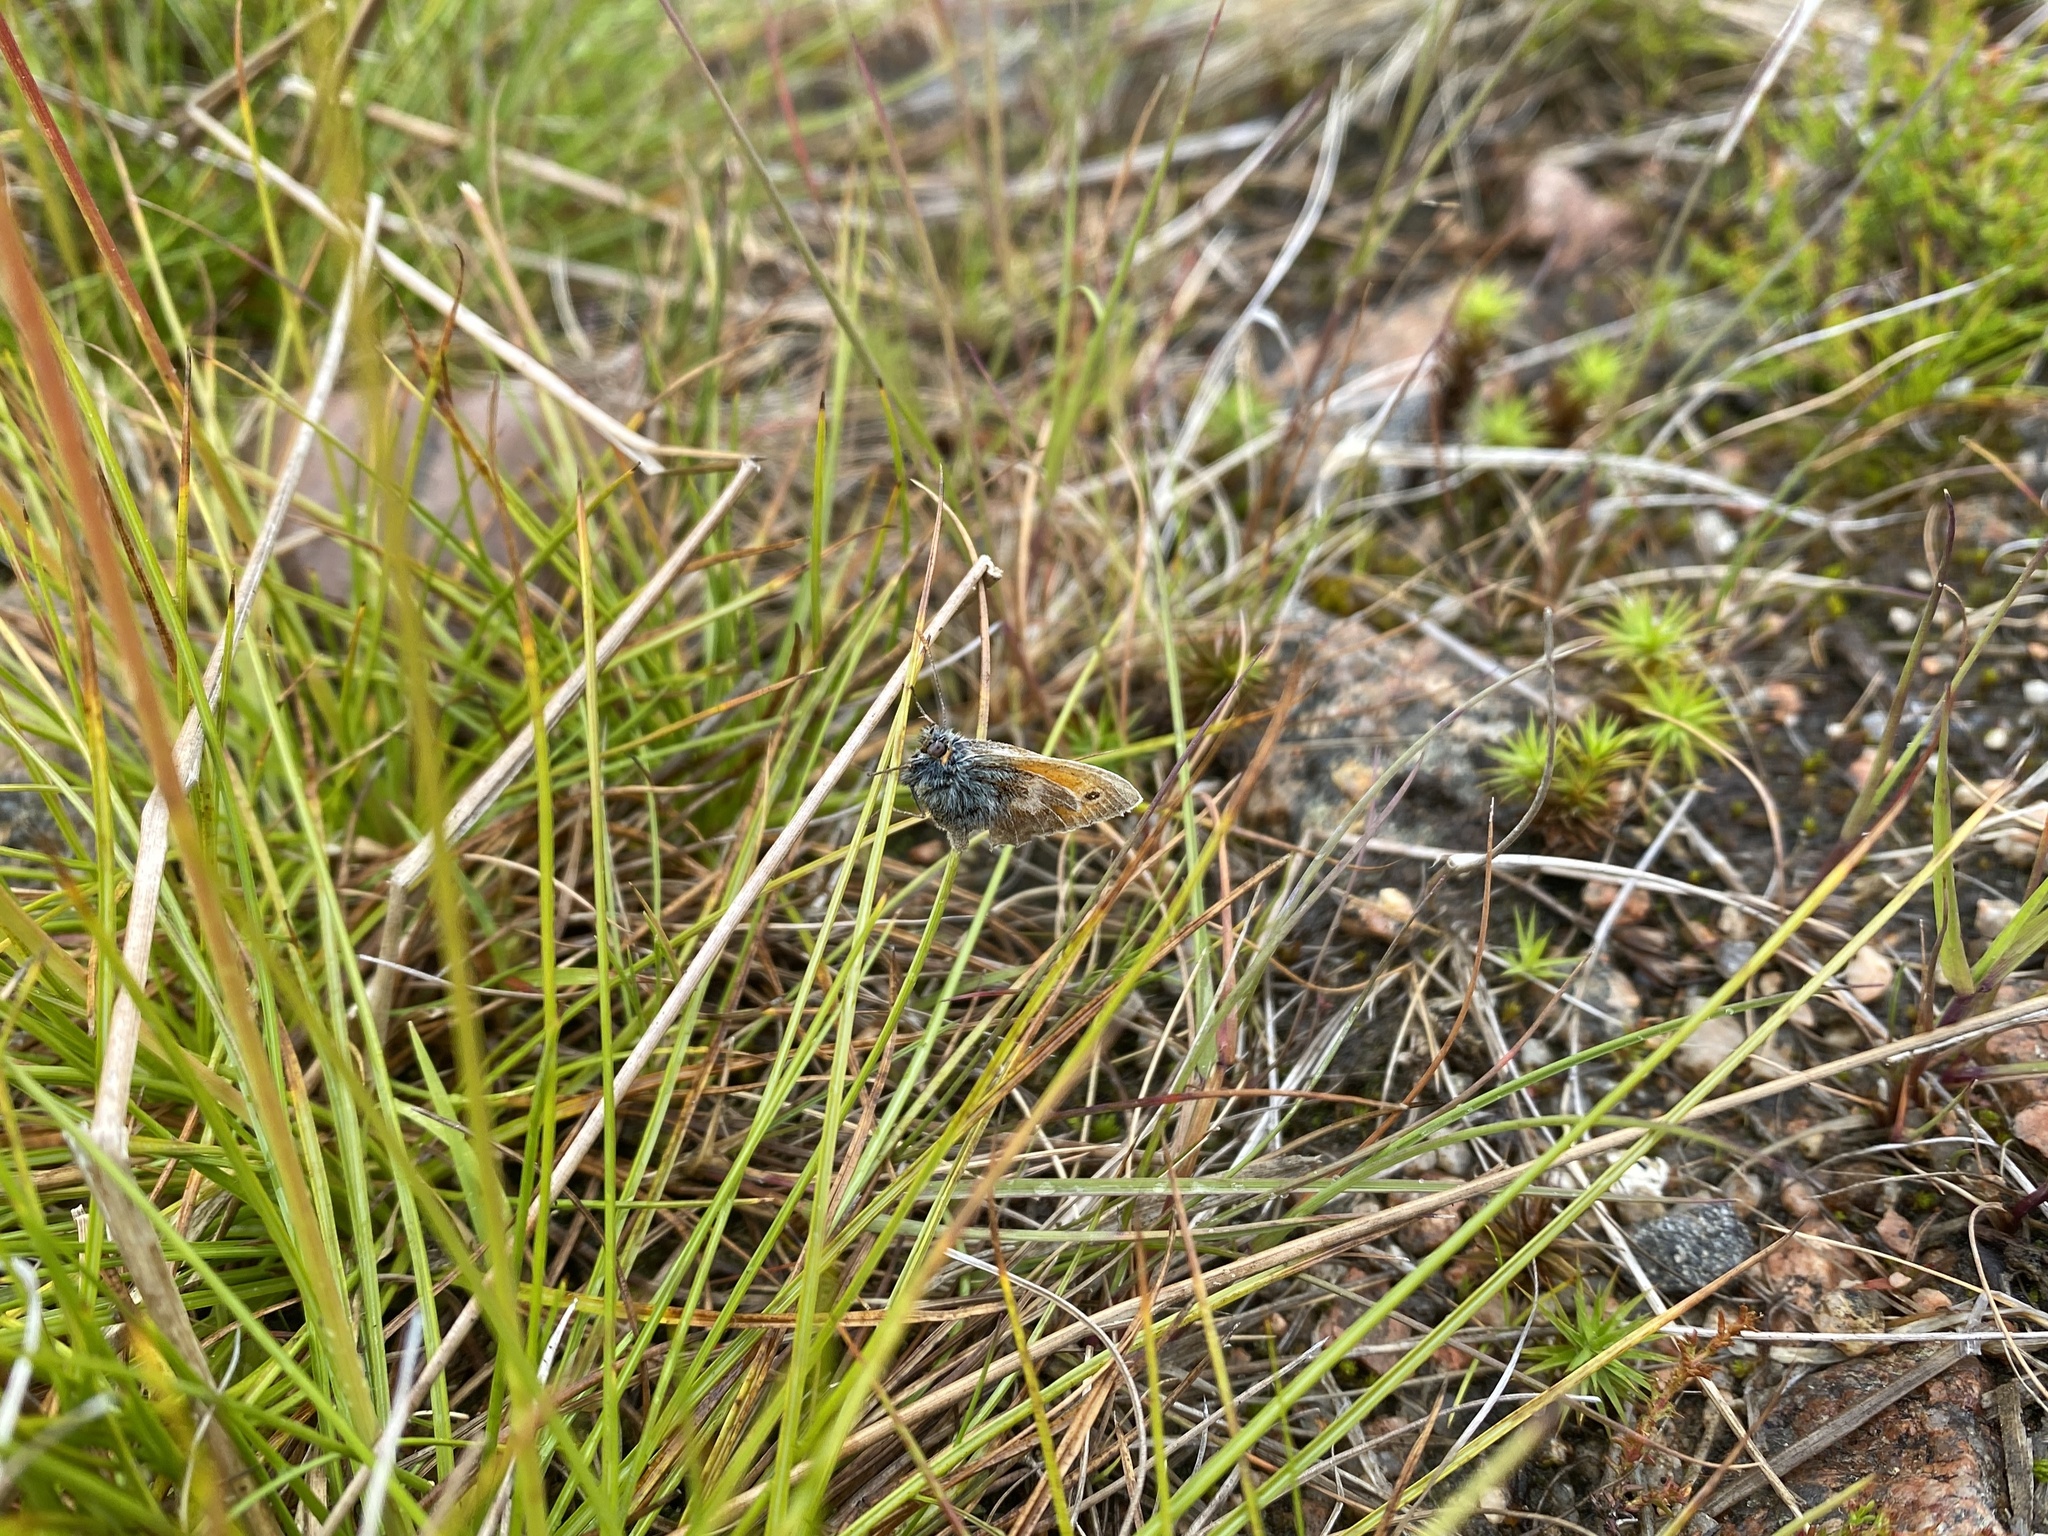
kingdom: Animalia
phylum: Arthropoda
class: Insecta
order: Lepidoptera
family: Nymphalidae
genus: Coenonympha
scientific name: Coenonympha pamphilus
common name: Small heath
